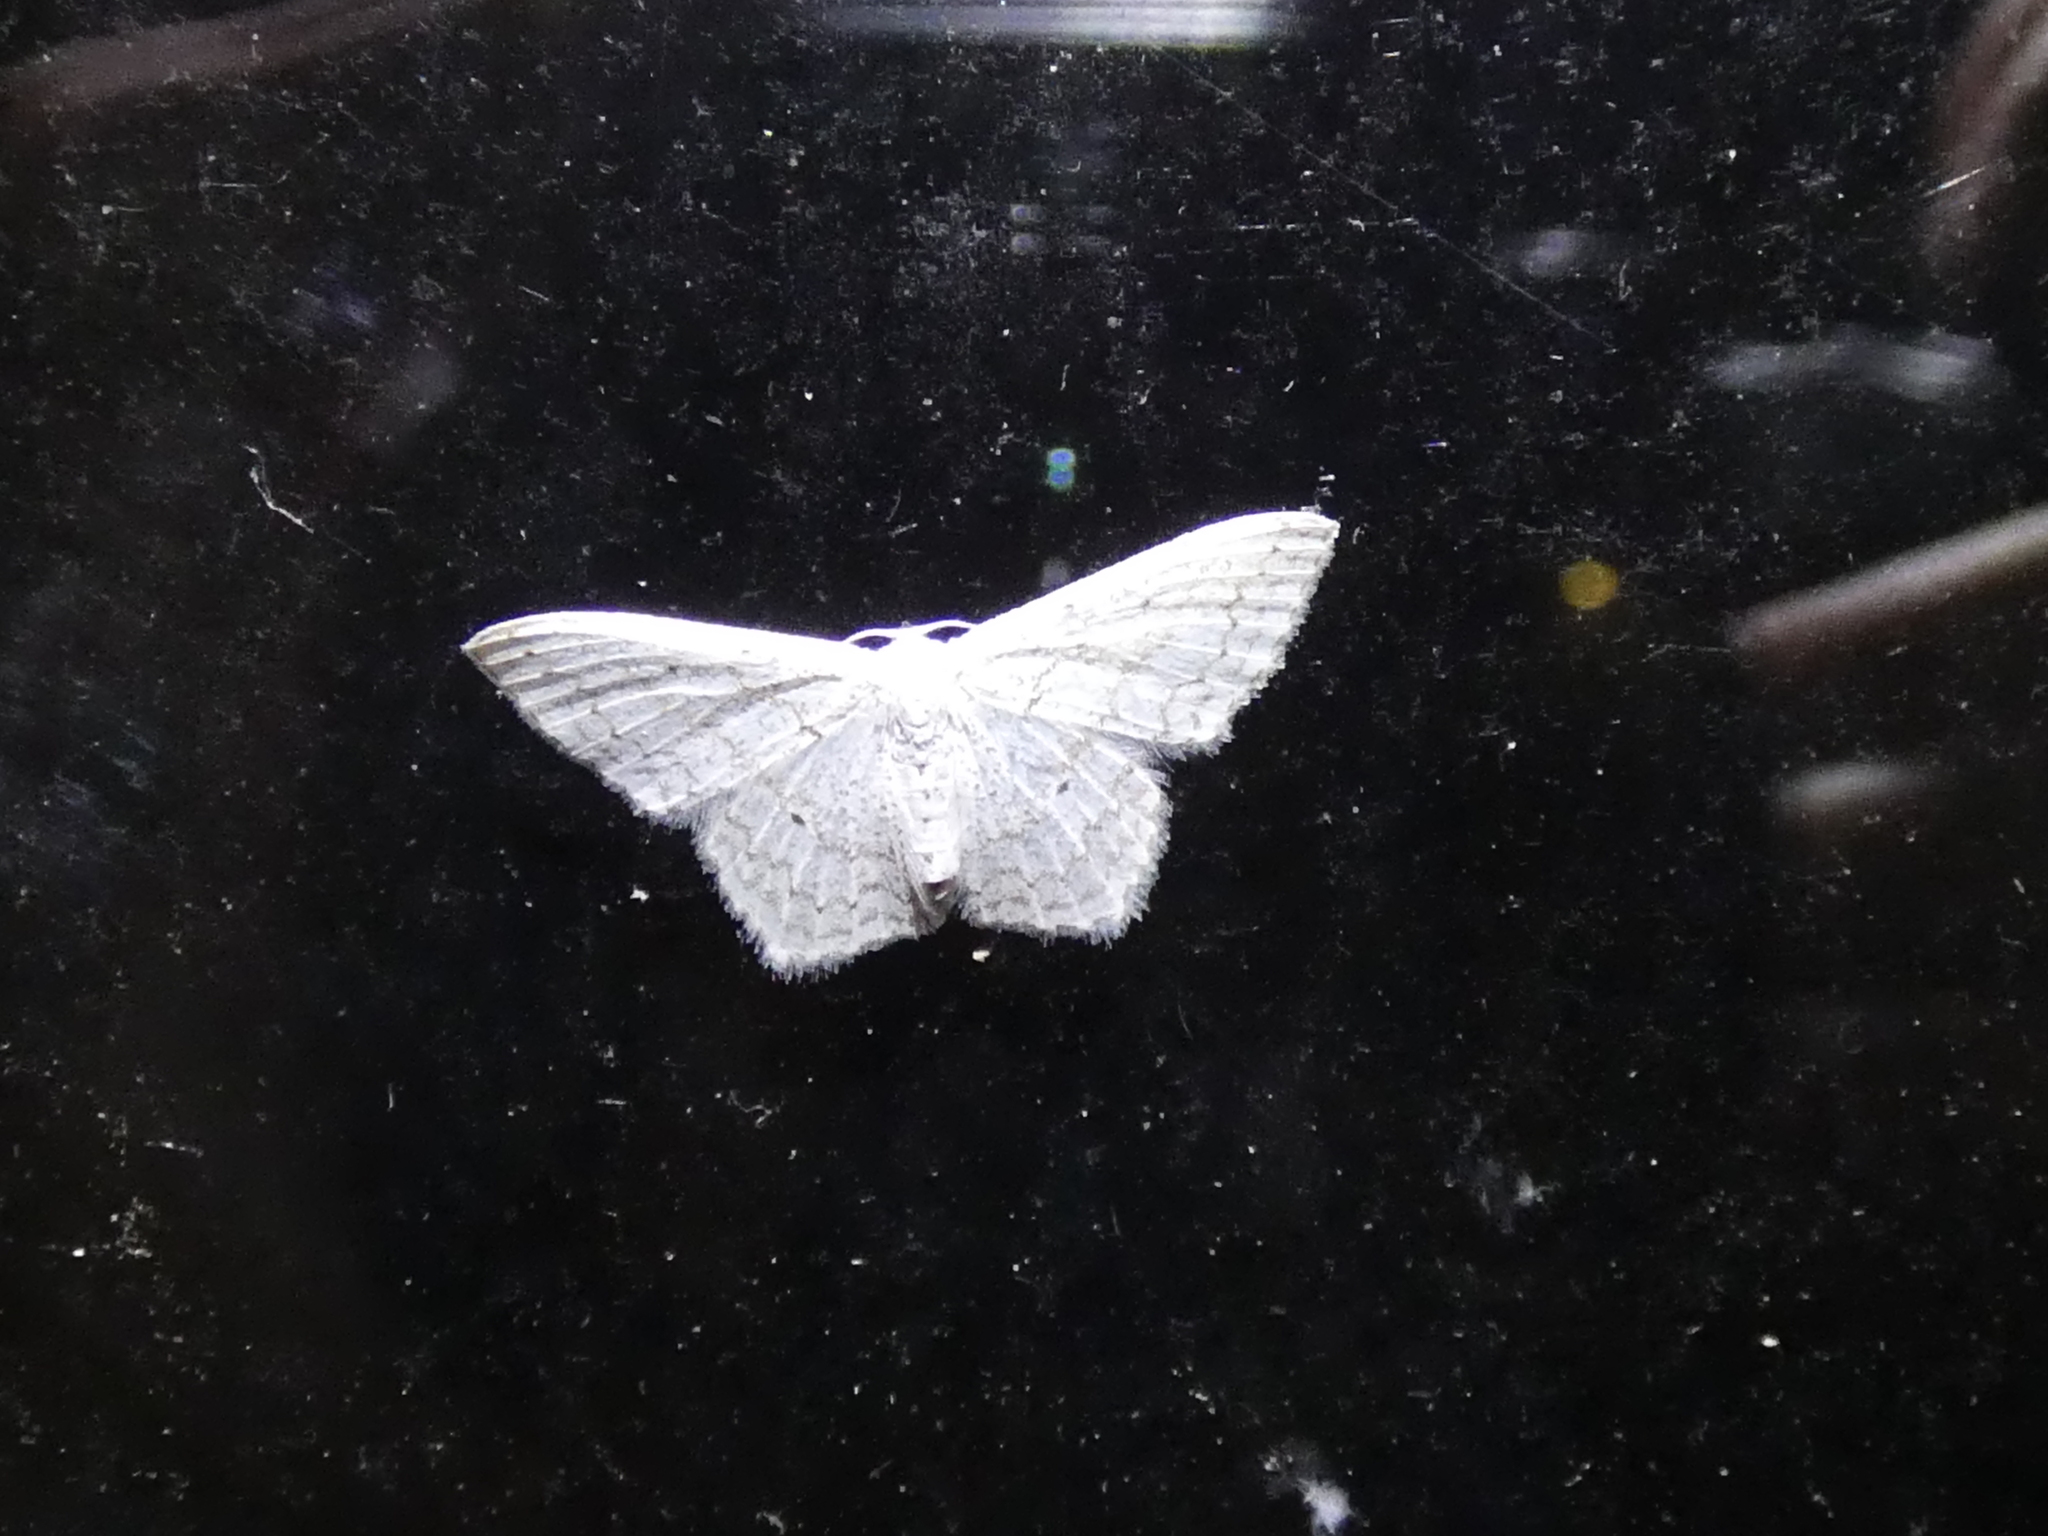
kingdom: Animalia
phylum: Arthropoda
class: Insecta
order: Lepidoptera
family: Geometridae
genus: Idaea
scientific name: Idaea tacturata
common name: Dot-lined wave
